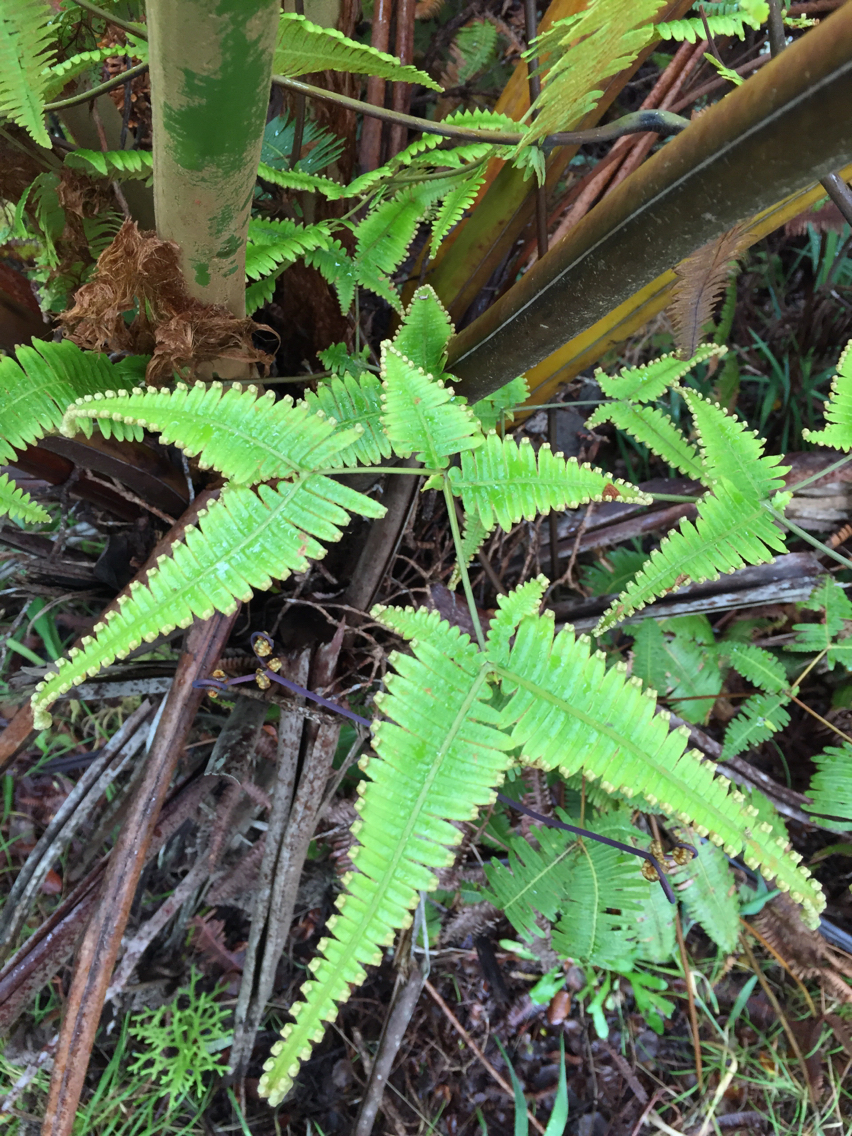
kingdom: Plantae
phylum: Tracheophyta
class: Polypodiopsida
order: Gleicheniales
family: Gleicheniaceae
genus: Dicranopteris
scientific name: Dicranopteris linearis
